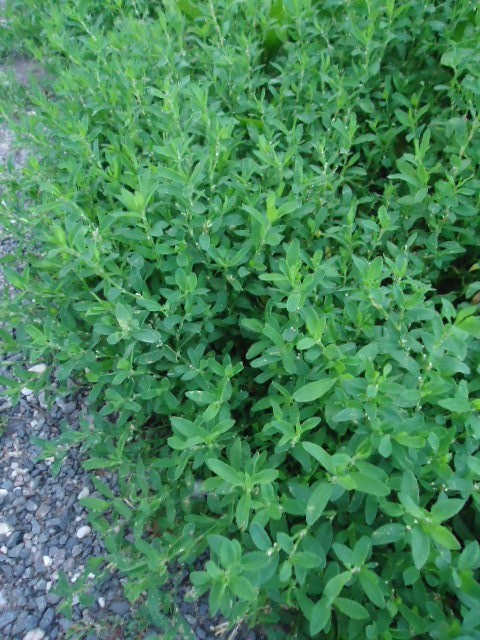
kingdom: Plantae
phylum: Tracheophyta
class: Magnoliopsida
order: Caryophyllales
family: Polygonaceae
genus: Polygonum
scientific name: Polygonum aviculare
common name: Prostrate knotweed
